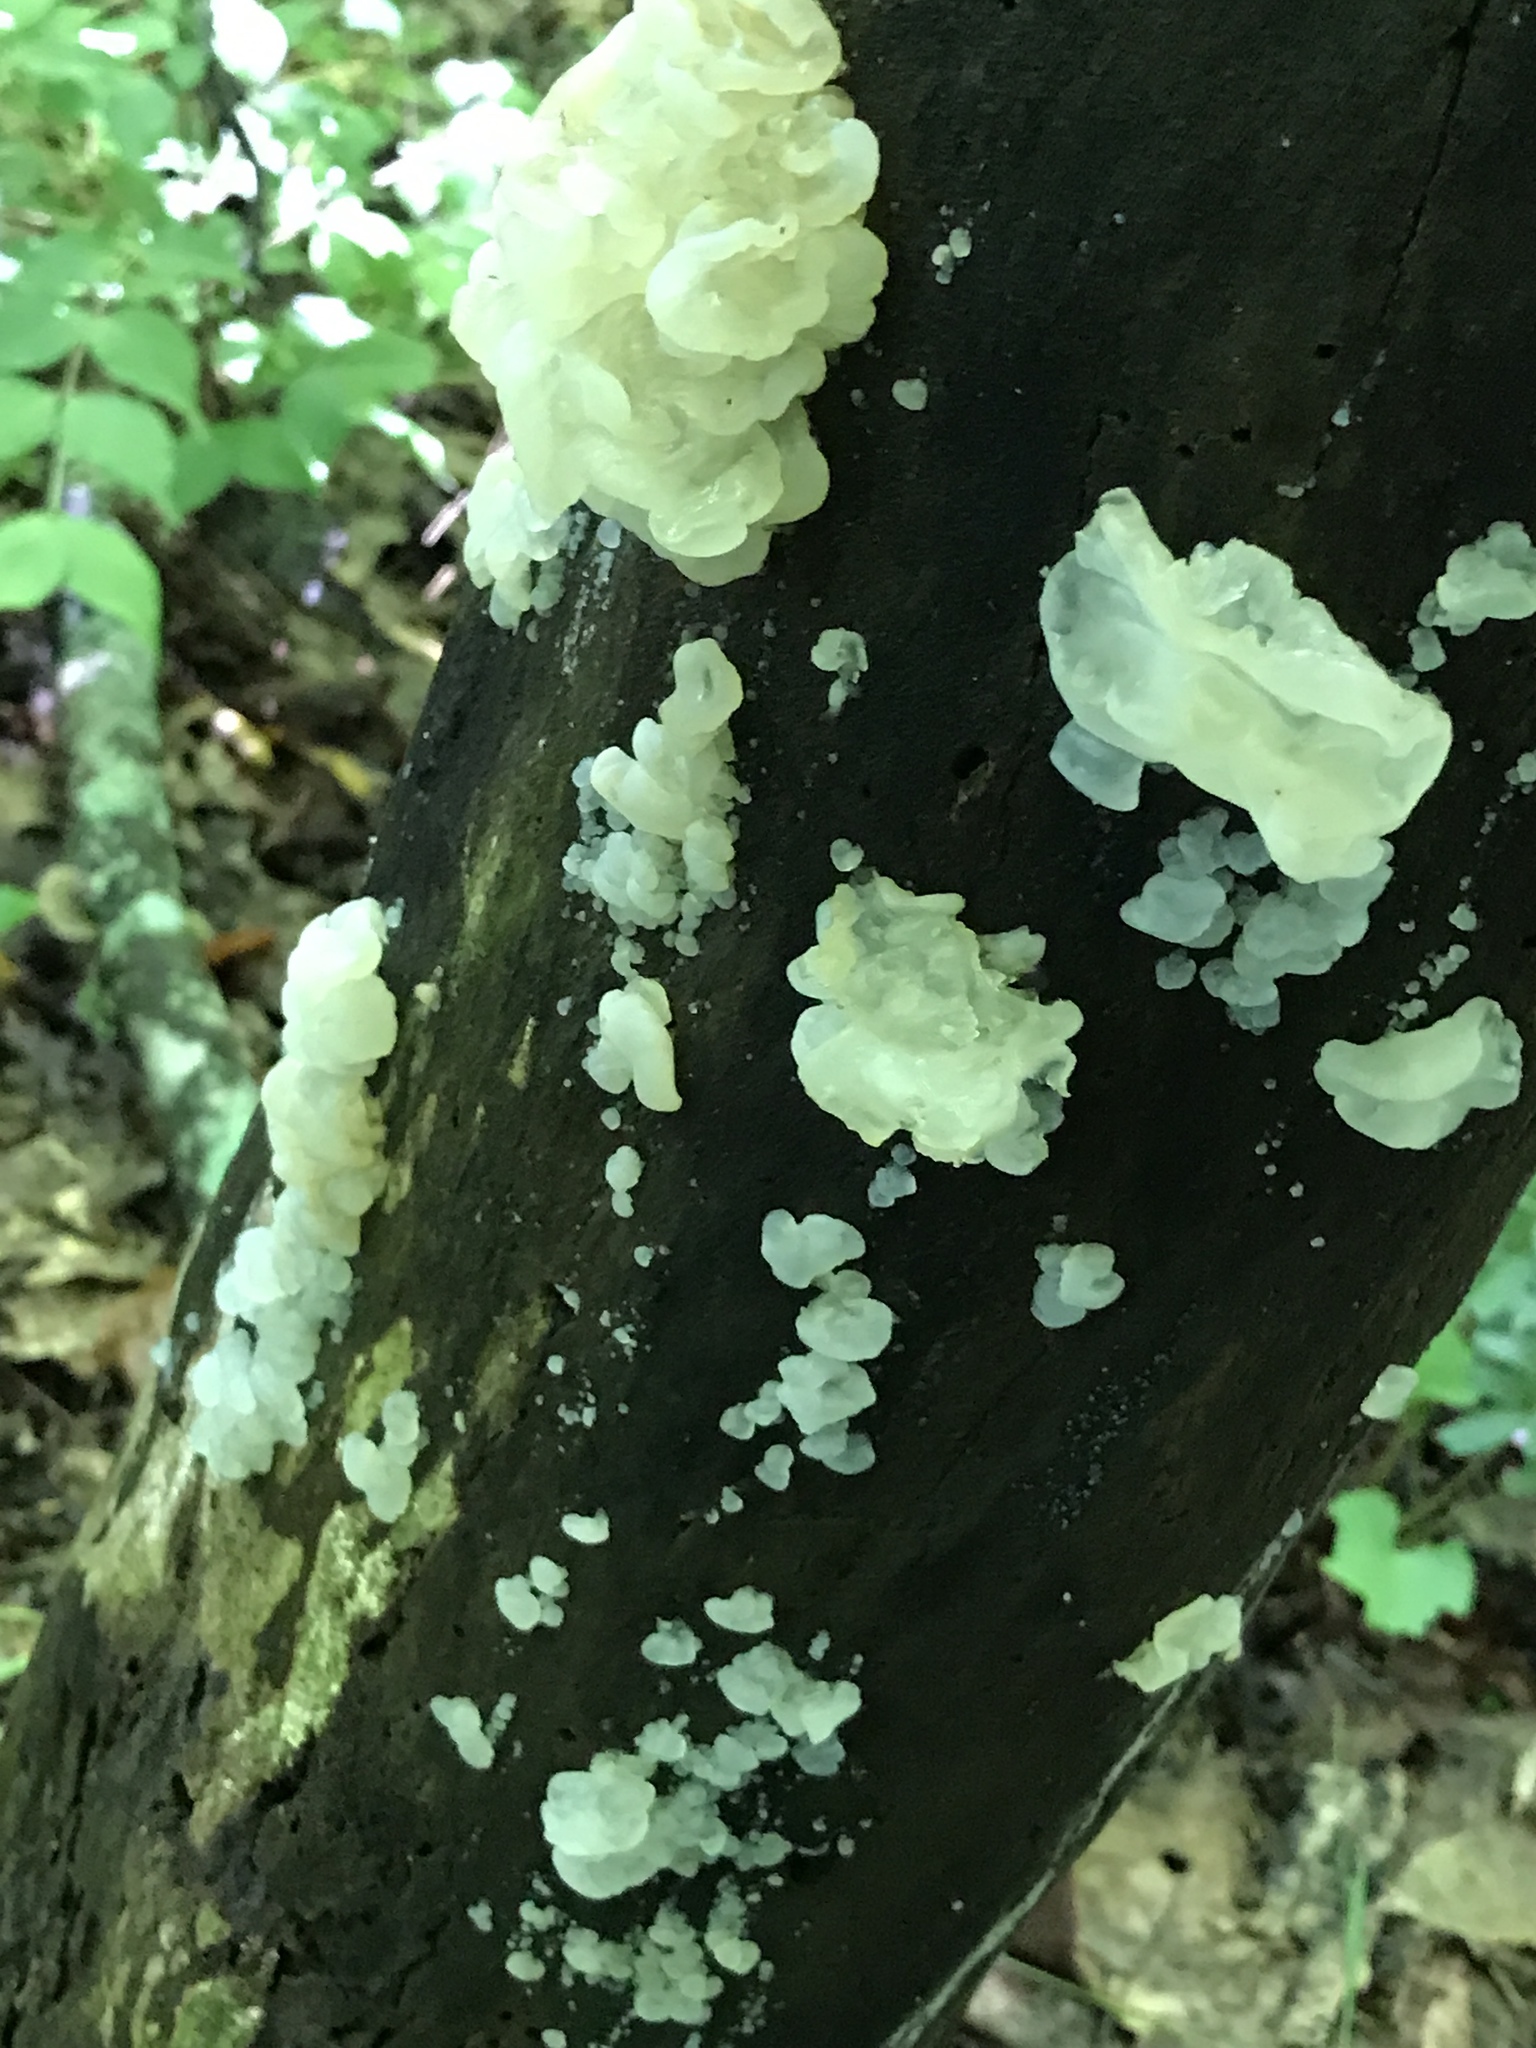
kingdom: Fungi
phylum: Basidiomycota
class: Agaricomycetes
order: Auriculariales
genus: Ductifera
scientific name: Ductifera pululahuana
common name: White jelly fungus
